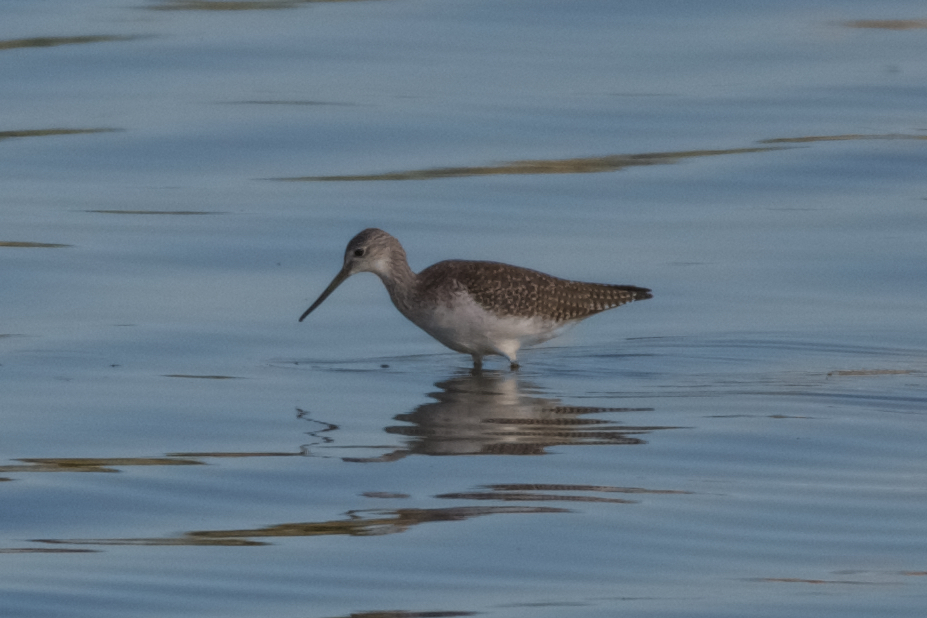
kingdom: Animalia
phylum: Chordata
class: Aves
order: Charadriiformes
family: Scolopacidae
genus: Tringa
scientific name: Tringa melanoleuca
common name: Greater yellowlegs
